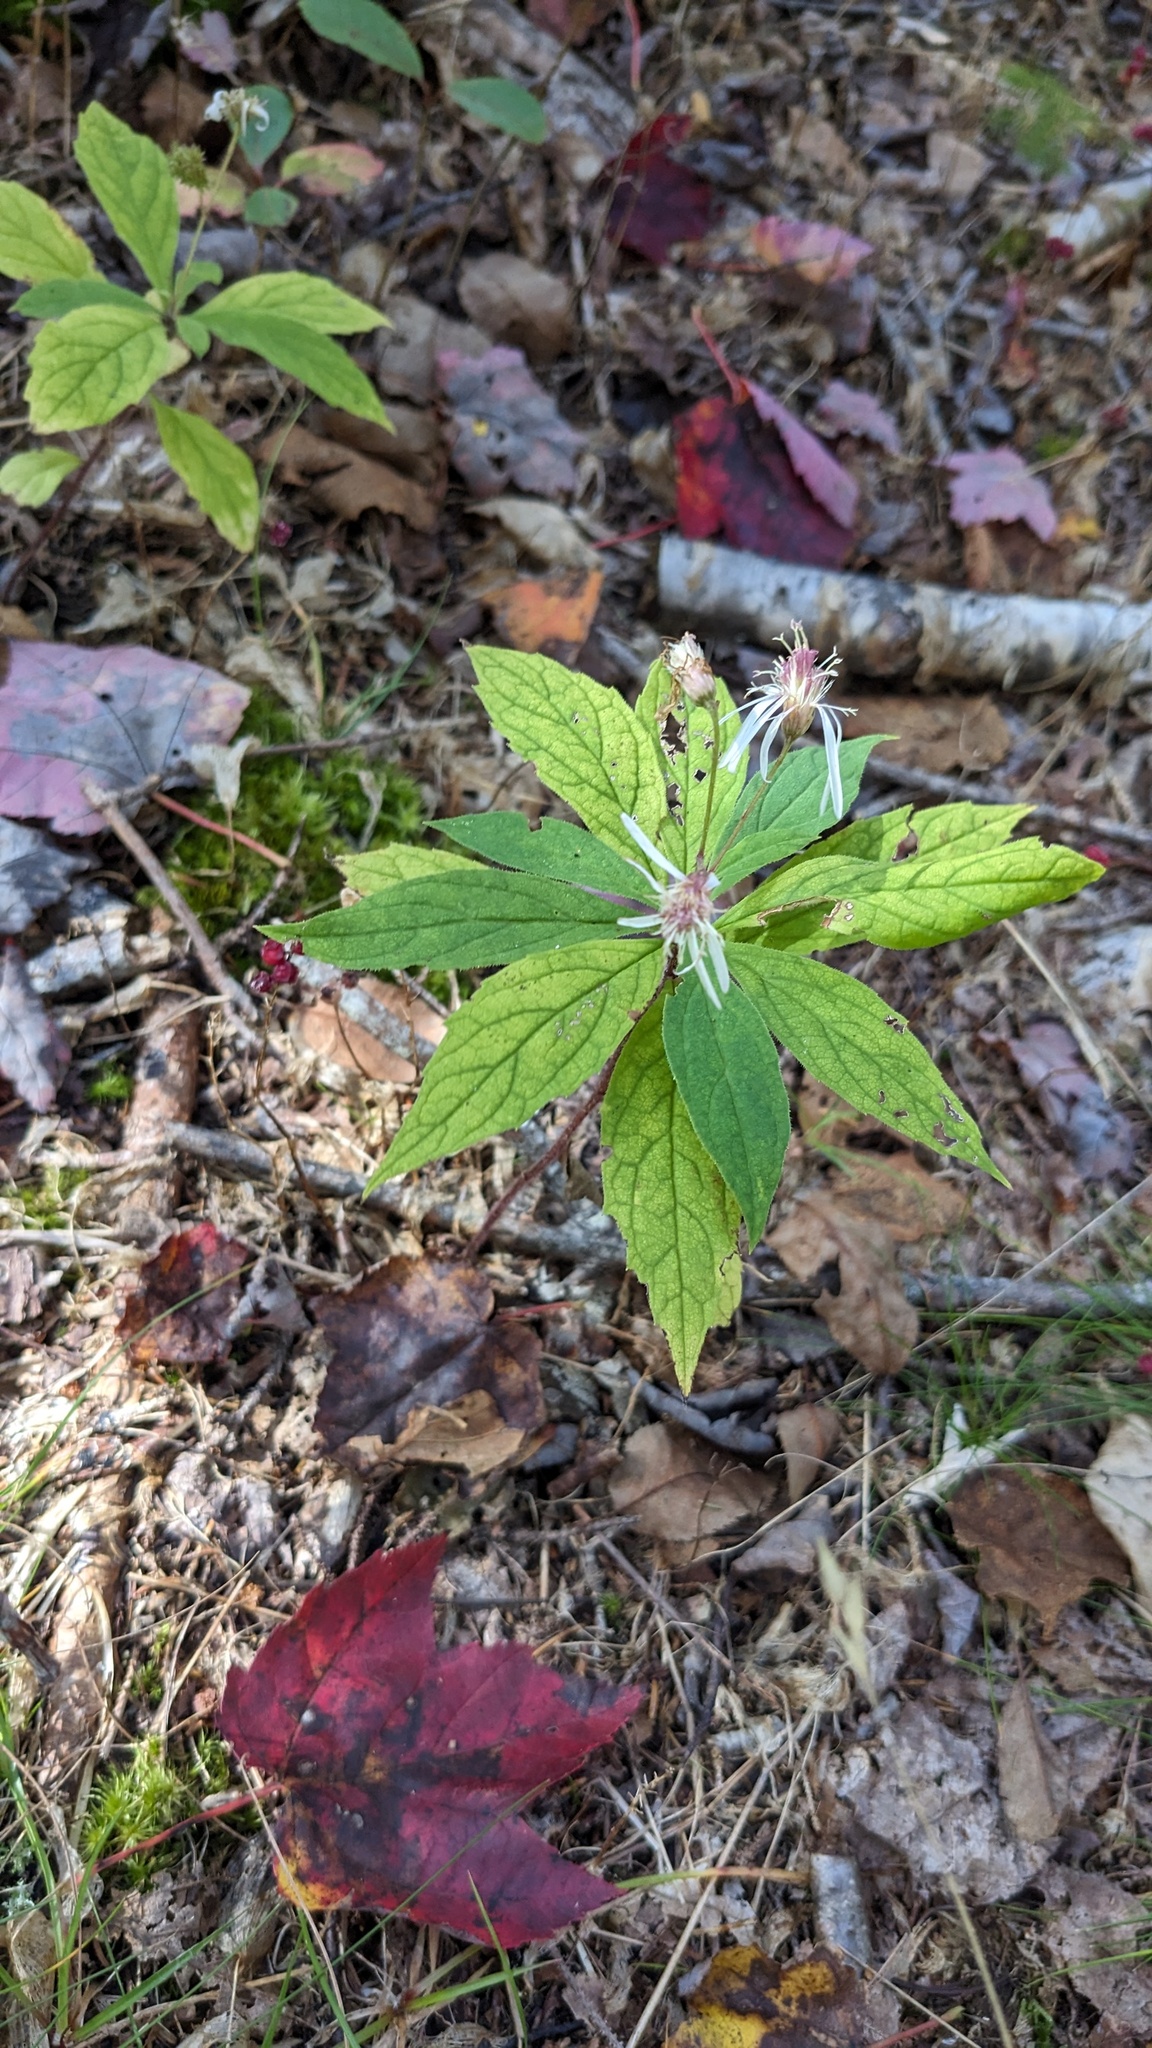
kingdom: Plantae
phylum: Tracheophyta
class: Magnoliopsida
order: Asterales
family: Asteraceae
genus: Oclemena
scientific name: Oclemena acuminata
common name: Mountain aster
